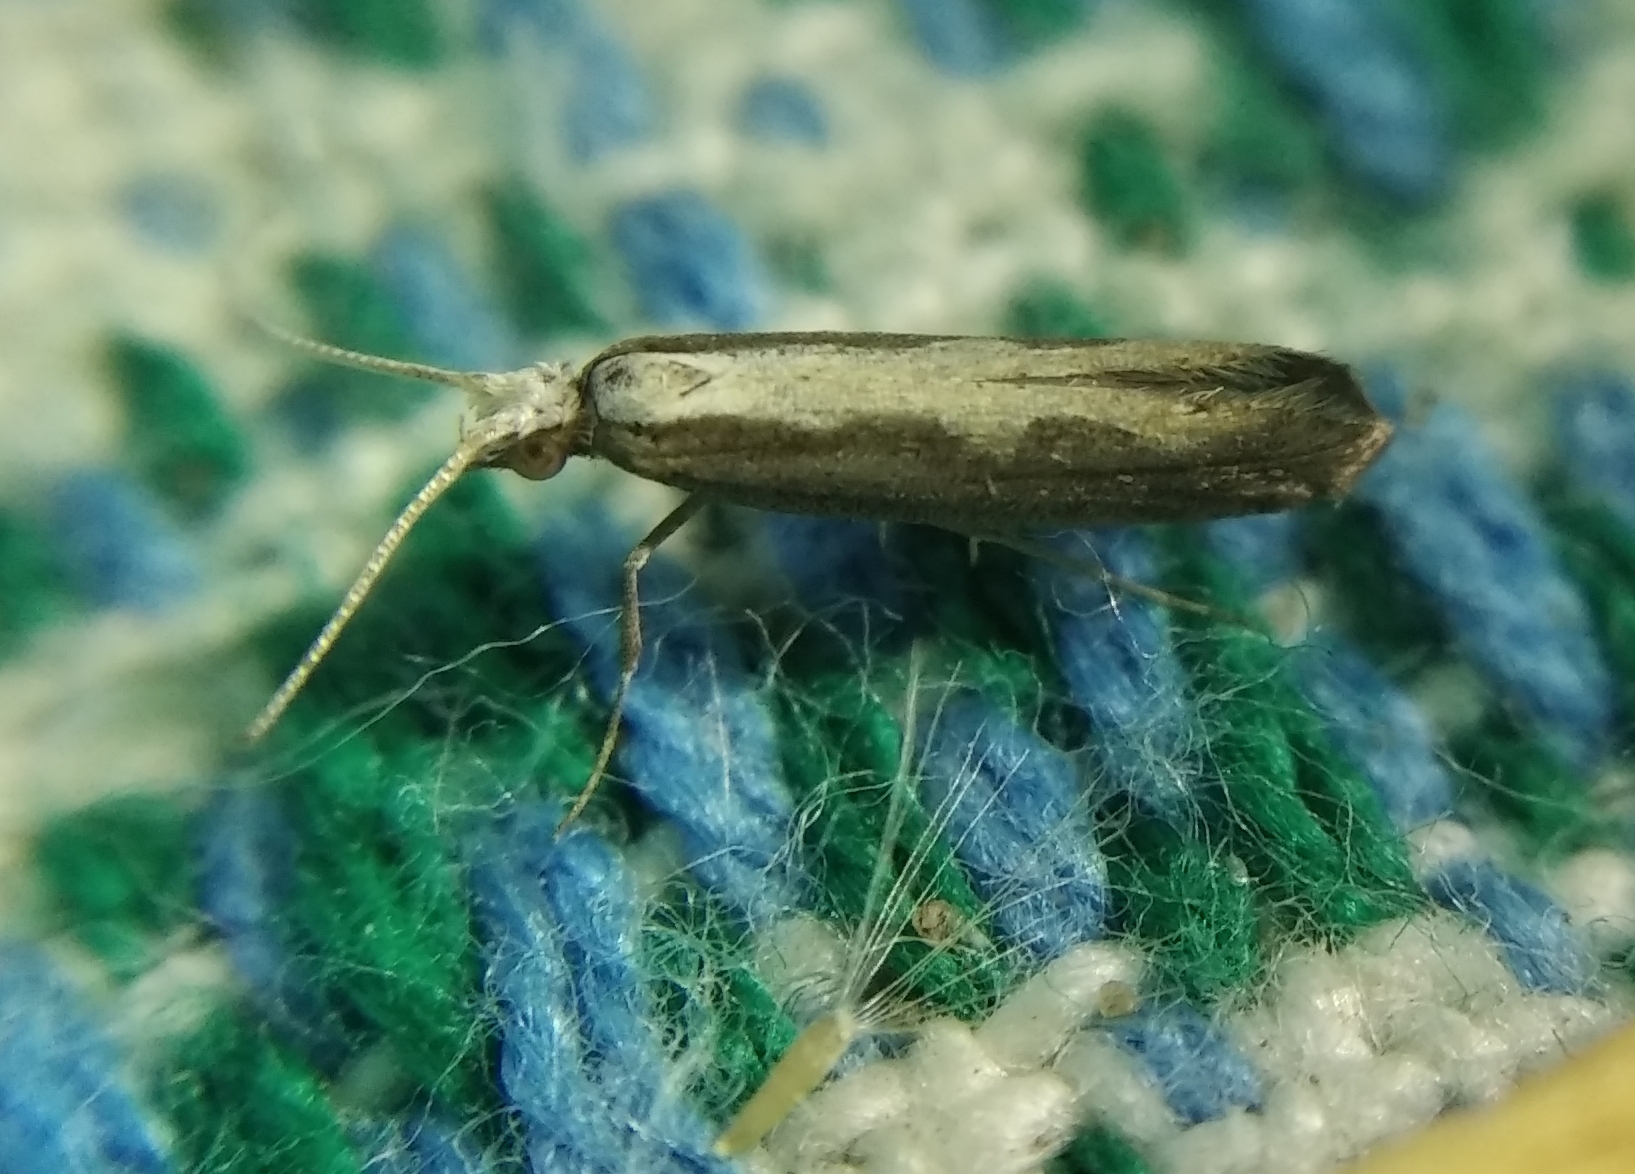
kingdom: Animalia
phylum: Arthropoda
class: Insecta
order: Lepidoptera
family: Plutellidae
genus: Plutella
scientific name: Plutella xylostella
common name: Diamond-back moth
